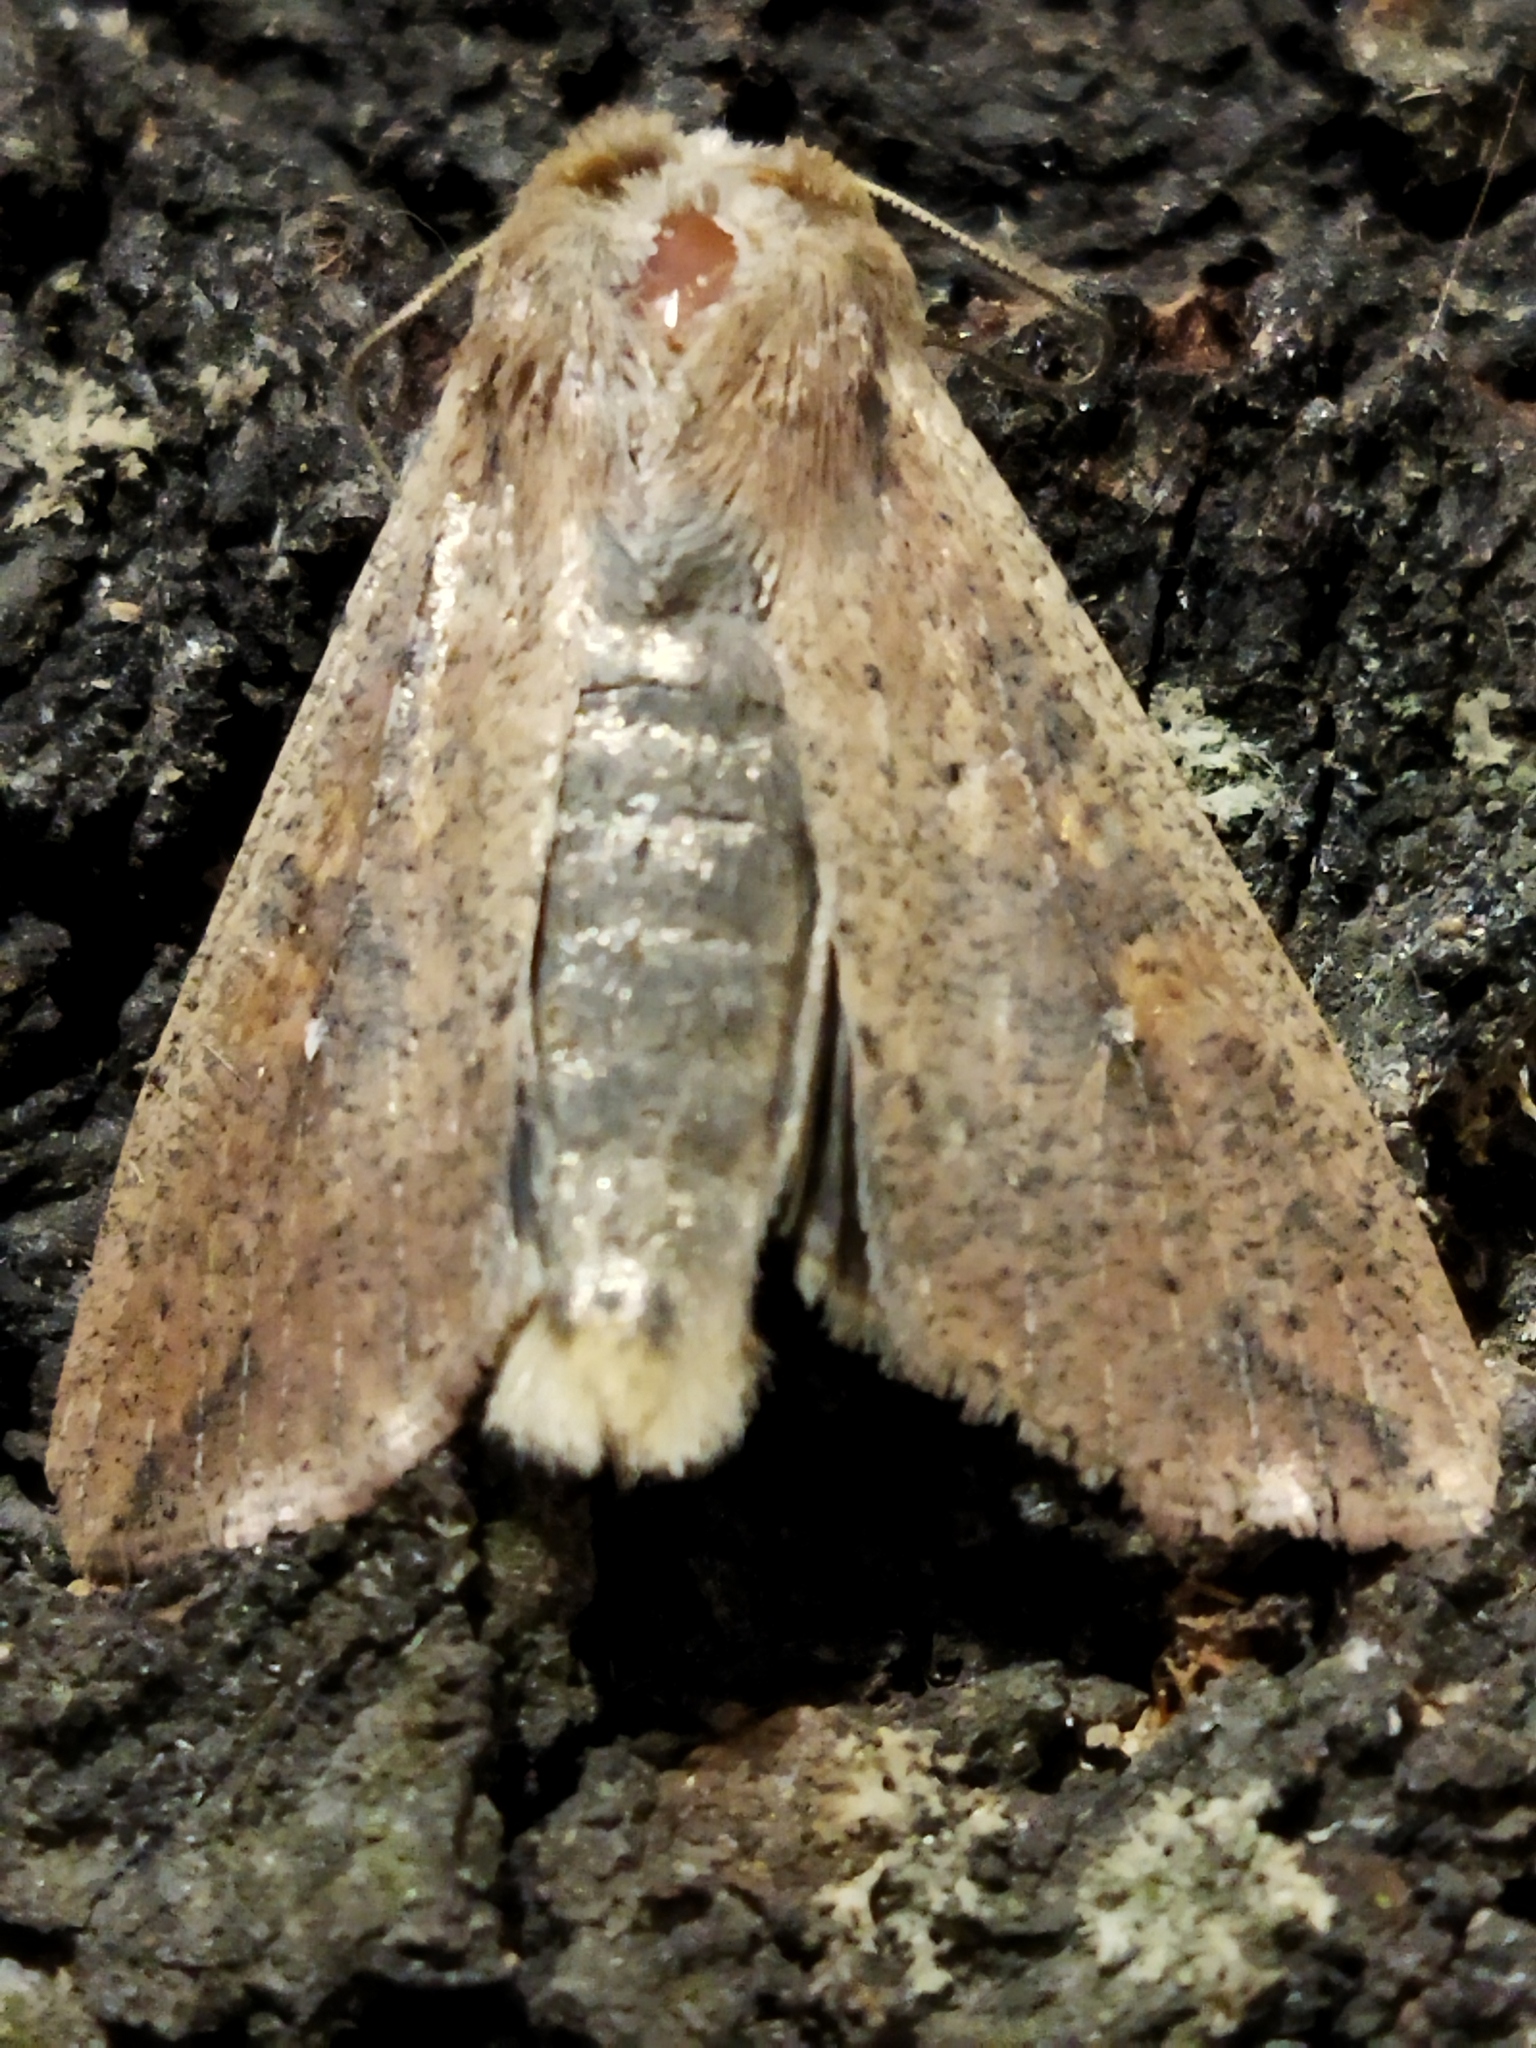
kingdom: Animalia
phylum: Arthropoda
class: Insecta
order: Lepidoptera
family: Noctuidae
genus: Mythimna
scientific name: Mythimna unipuncta
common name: White-speck
